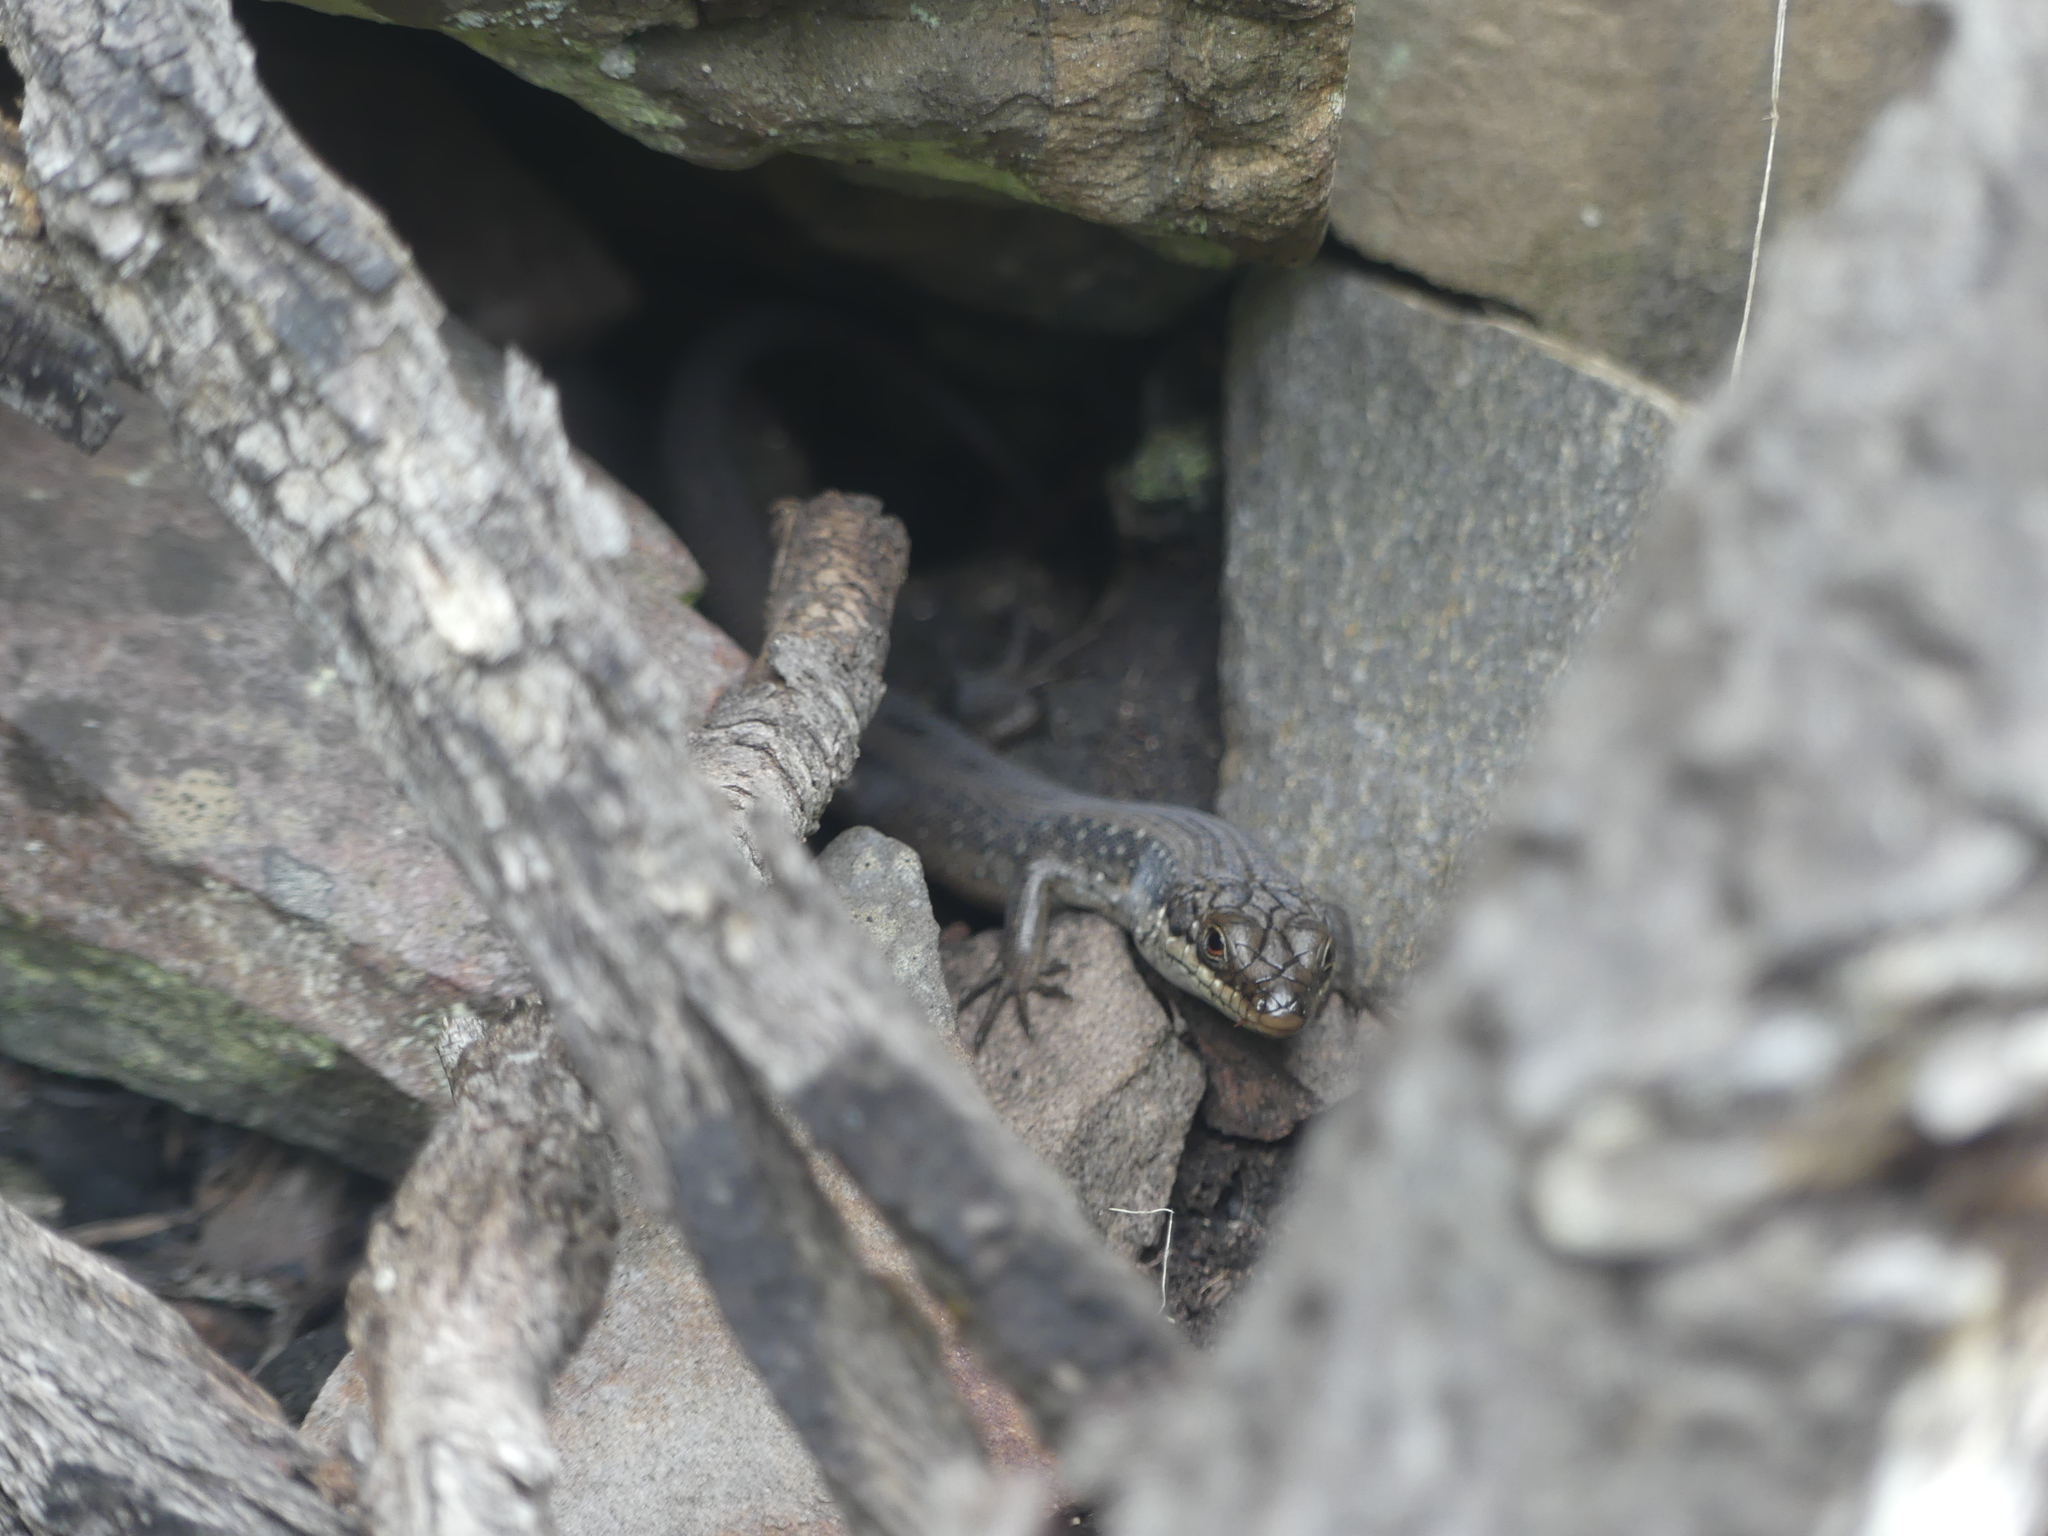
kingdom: Animalia
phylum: Chordata
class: Squamata
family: Scincidae
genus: Egernia
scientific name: Egernia napoleonis
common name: South-western crevice skink
